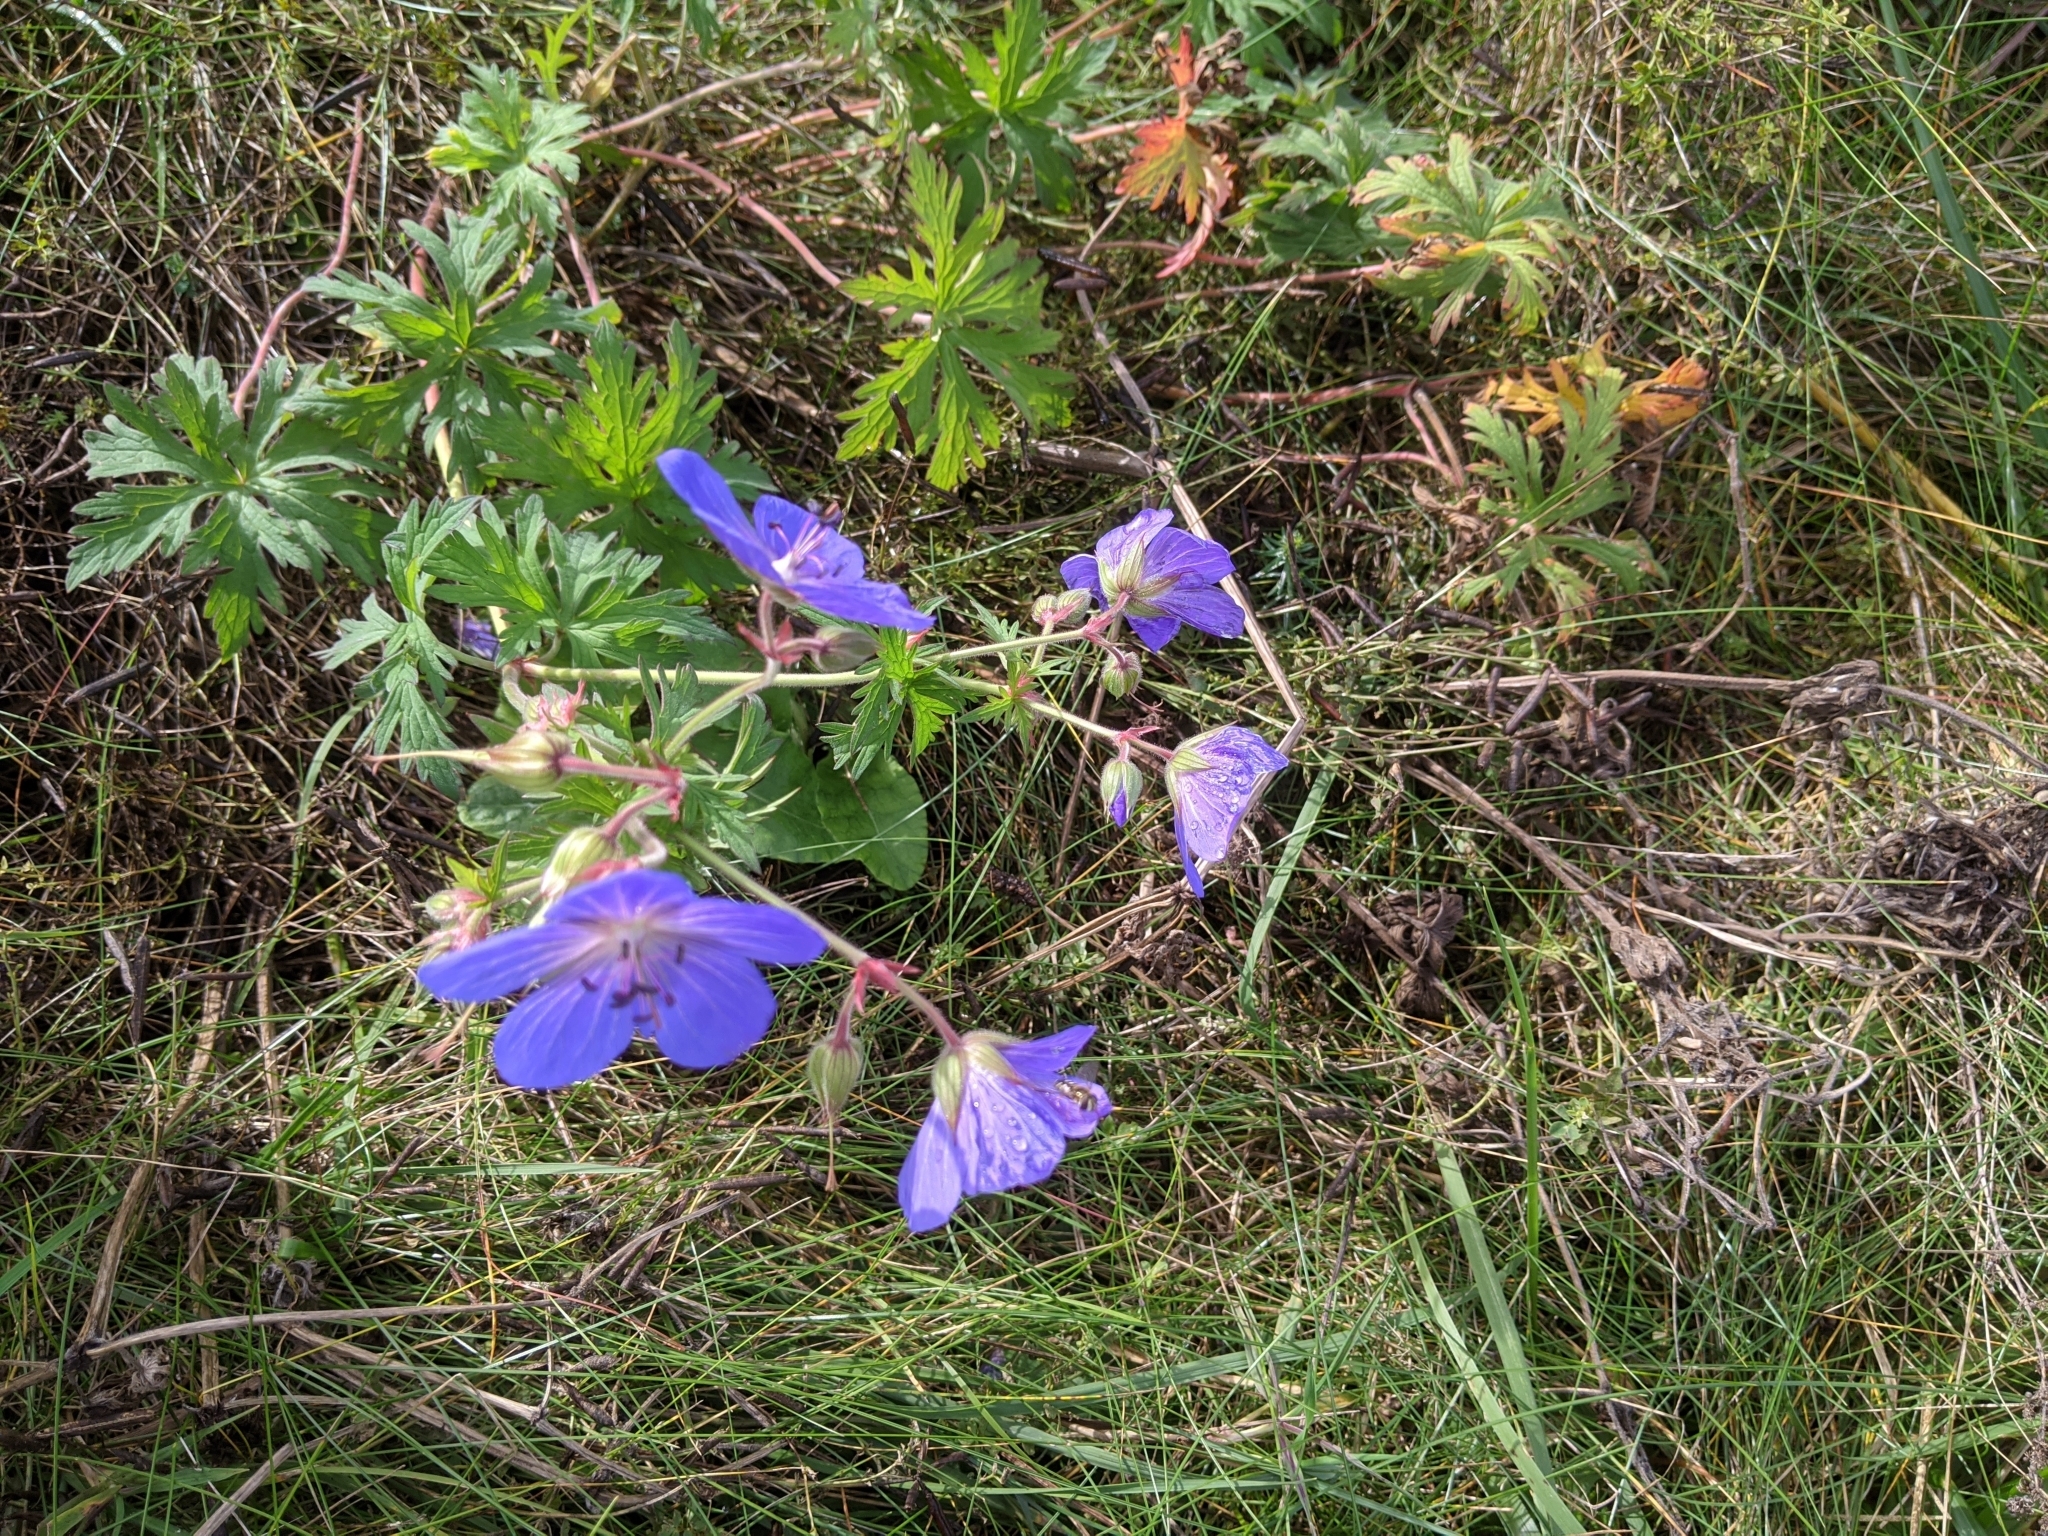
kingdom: Plantae
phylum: Tracheophyta
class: Magnoliopsida
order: Geraniales
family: Geraniaceae
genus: Geranium
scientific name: Geranium pratense
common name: Meadow crane's-bill
